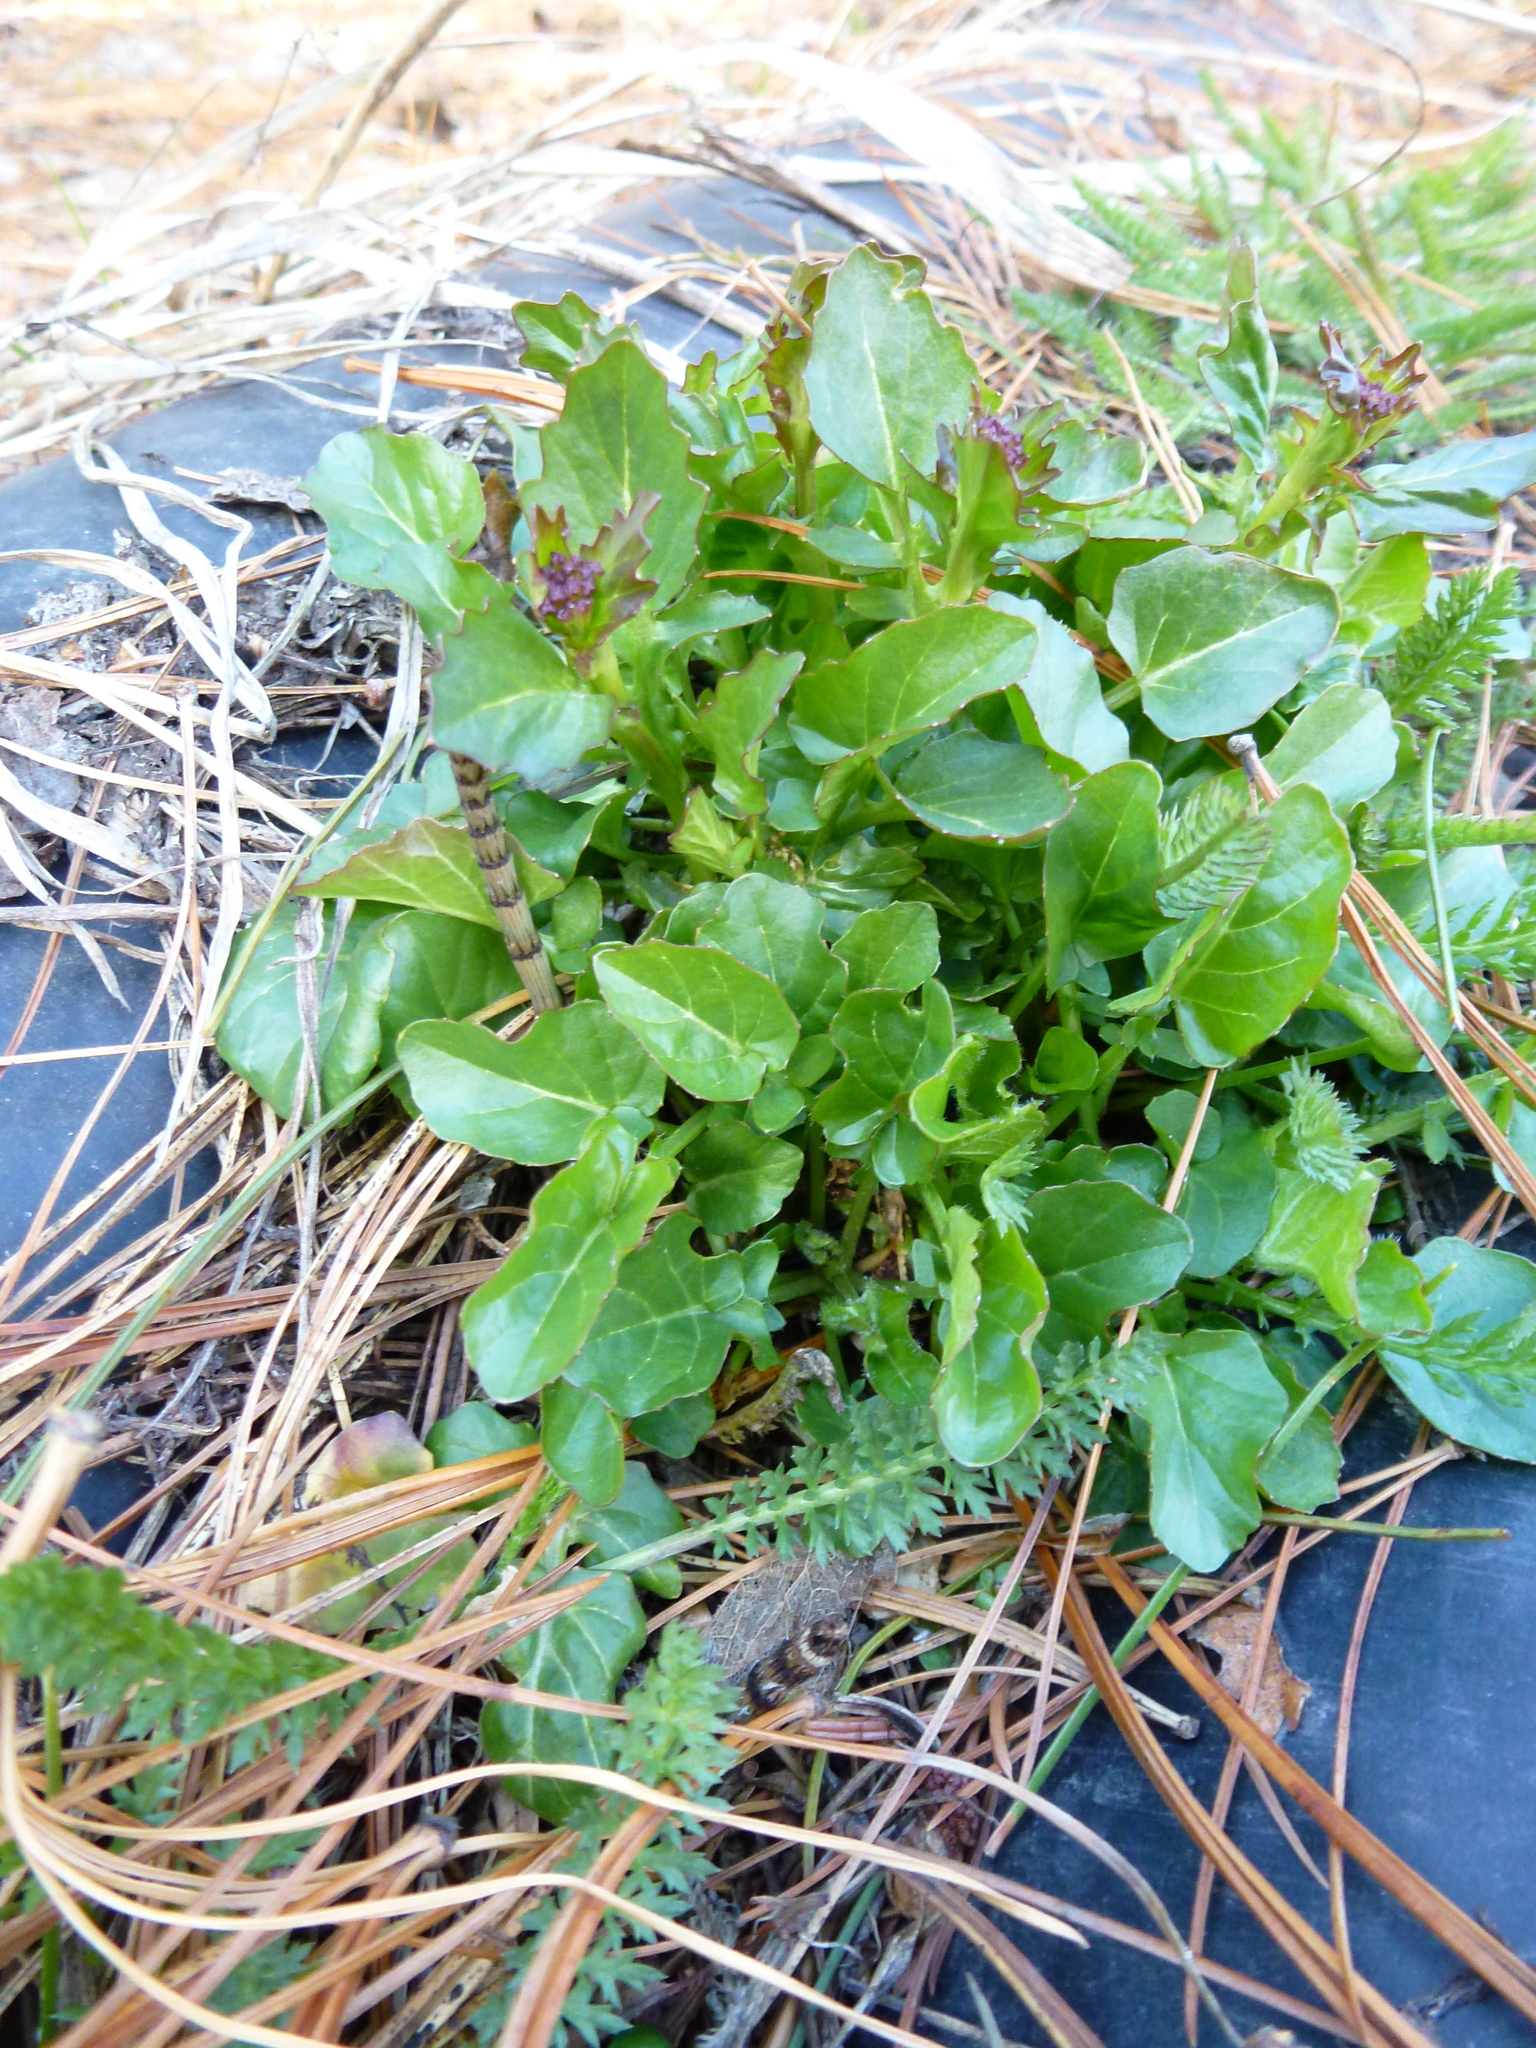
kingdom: Plantae
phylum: Tracheophyta
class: Magnoliopsida
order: Brassicales
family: Brassicaceae
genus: Barbarea
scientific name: Barbarea vulgaris
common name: Cressy-greens
